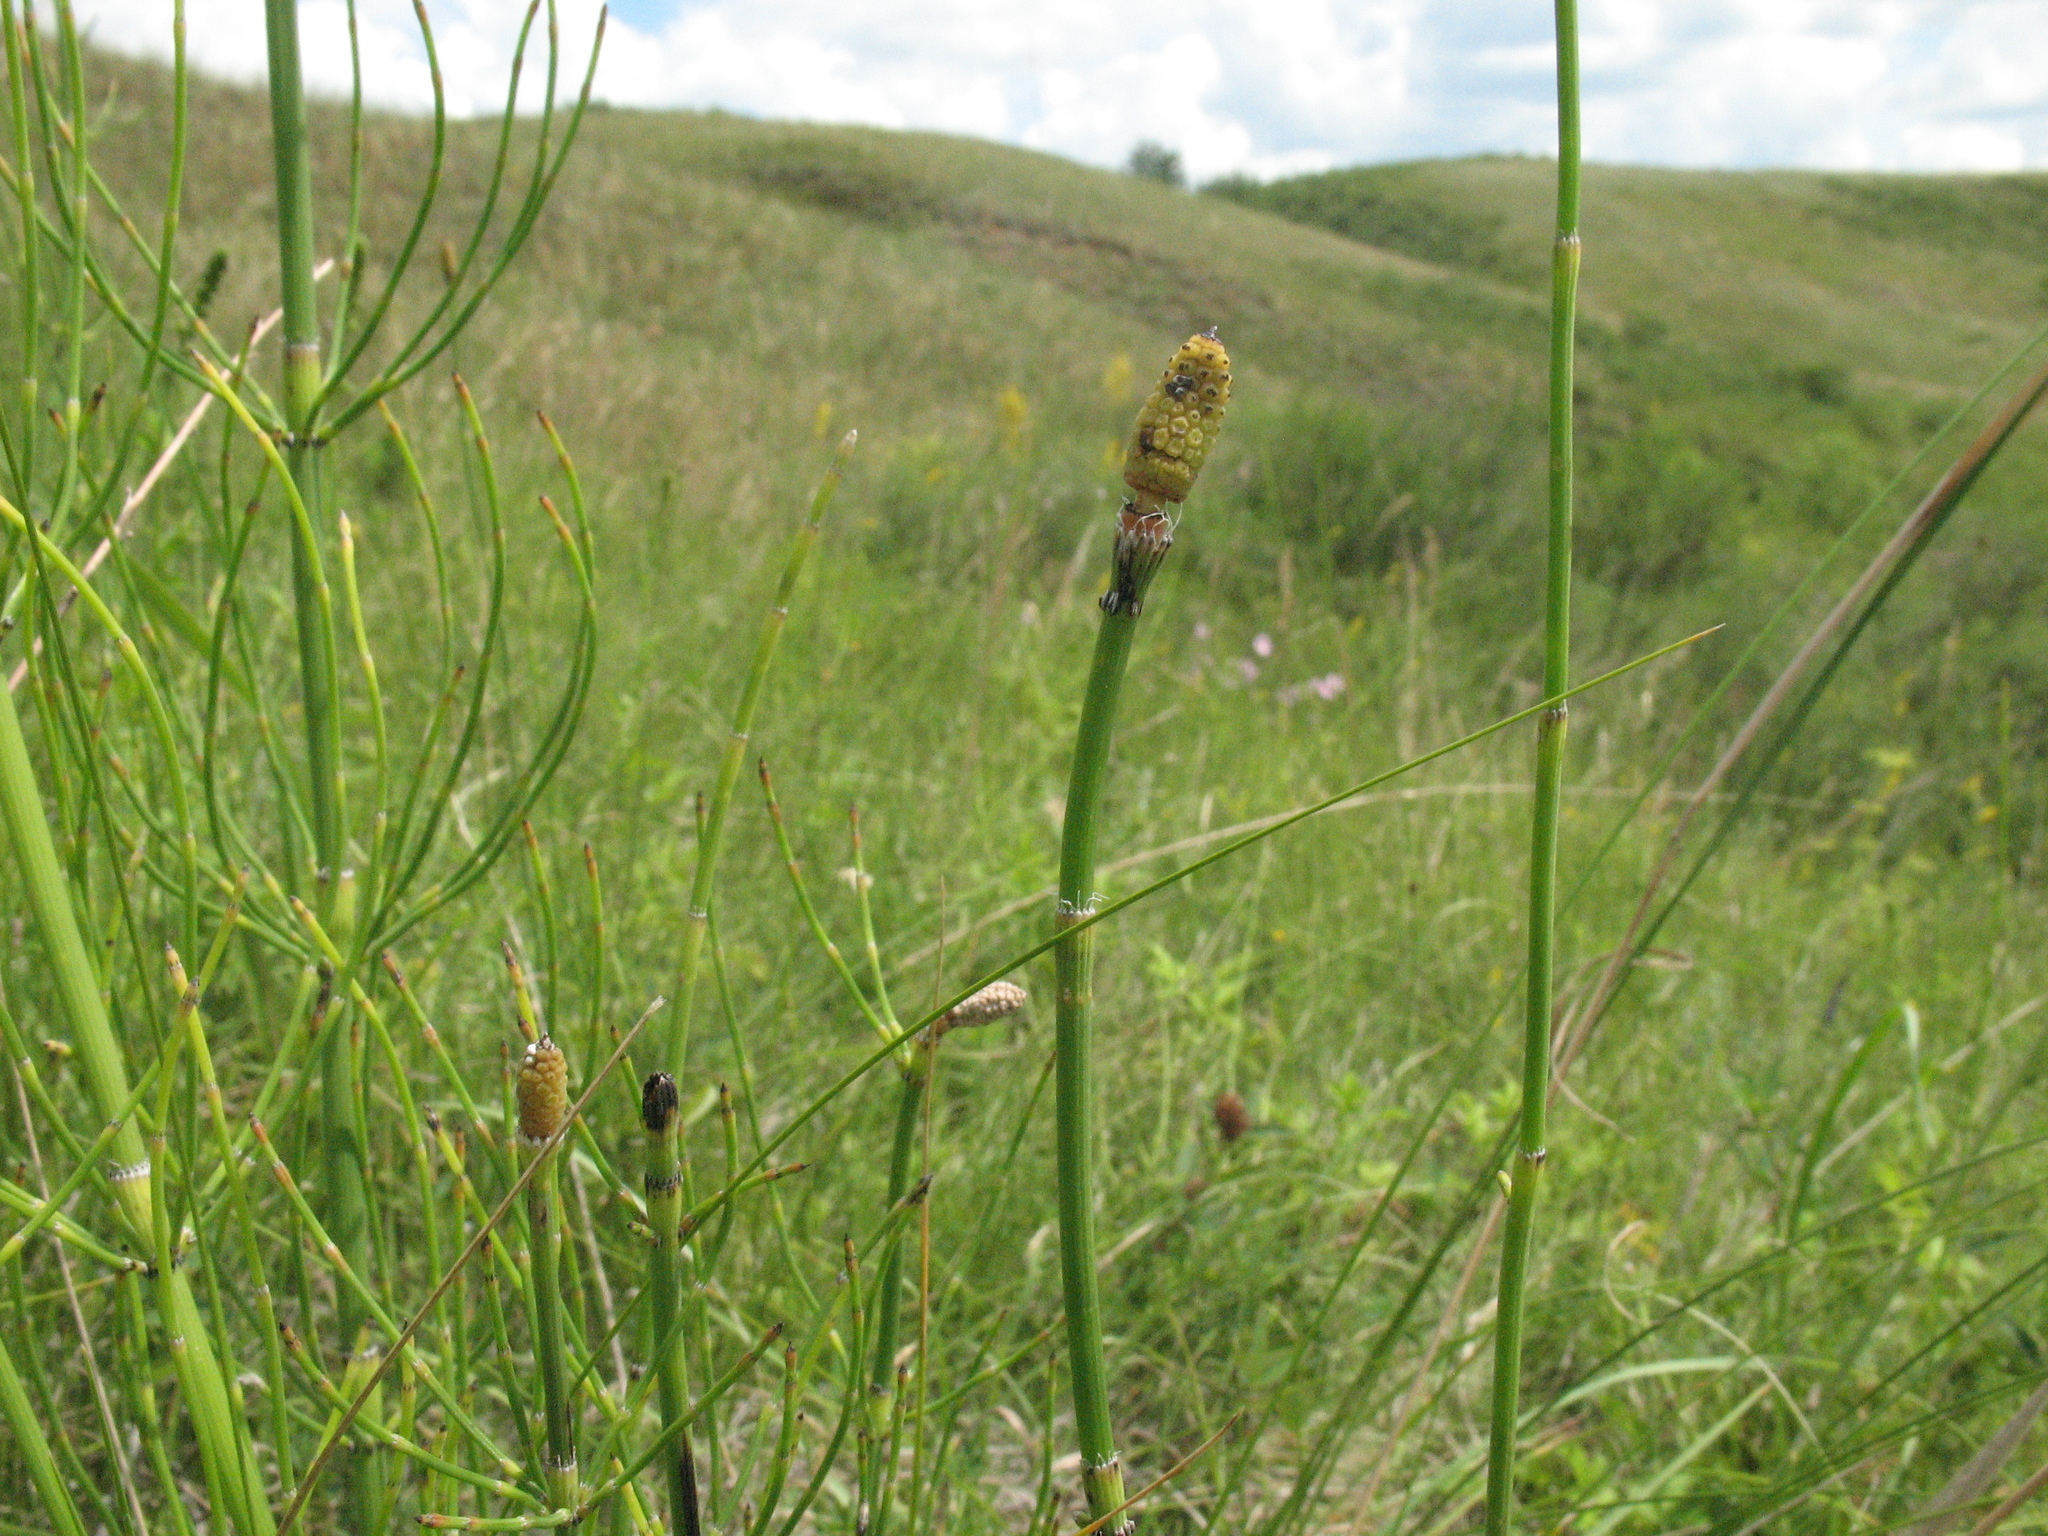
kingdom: Plantae
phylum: Tracheophyta
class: Polypodiopsida
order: Equisetales
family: Equisetaceae
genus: Equisetum
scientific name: Equisetum ramosissimum
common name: Branched horsetail
